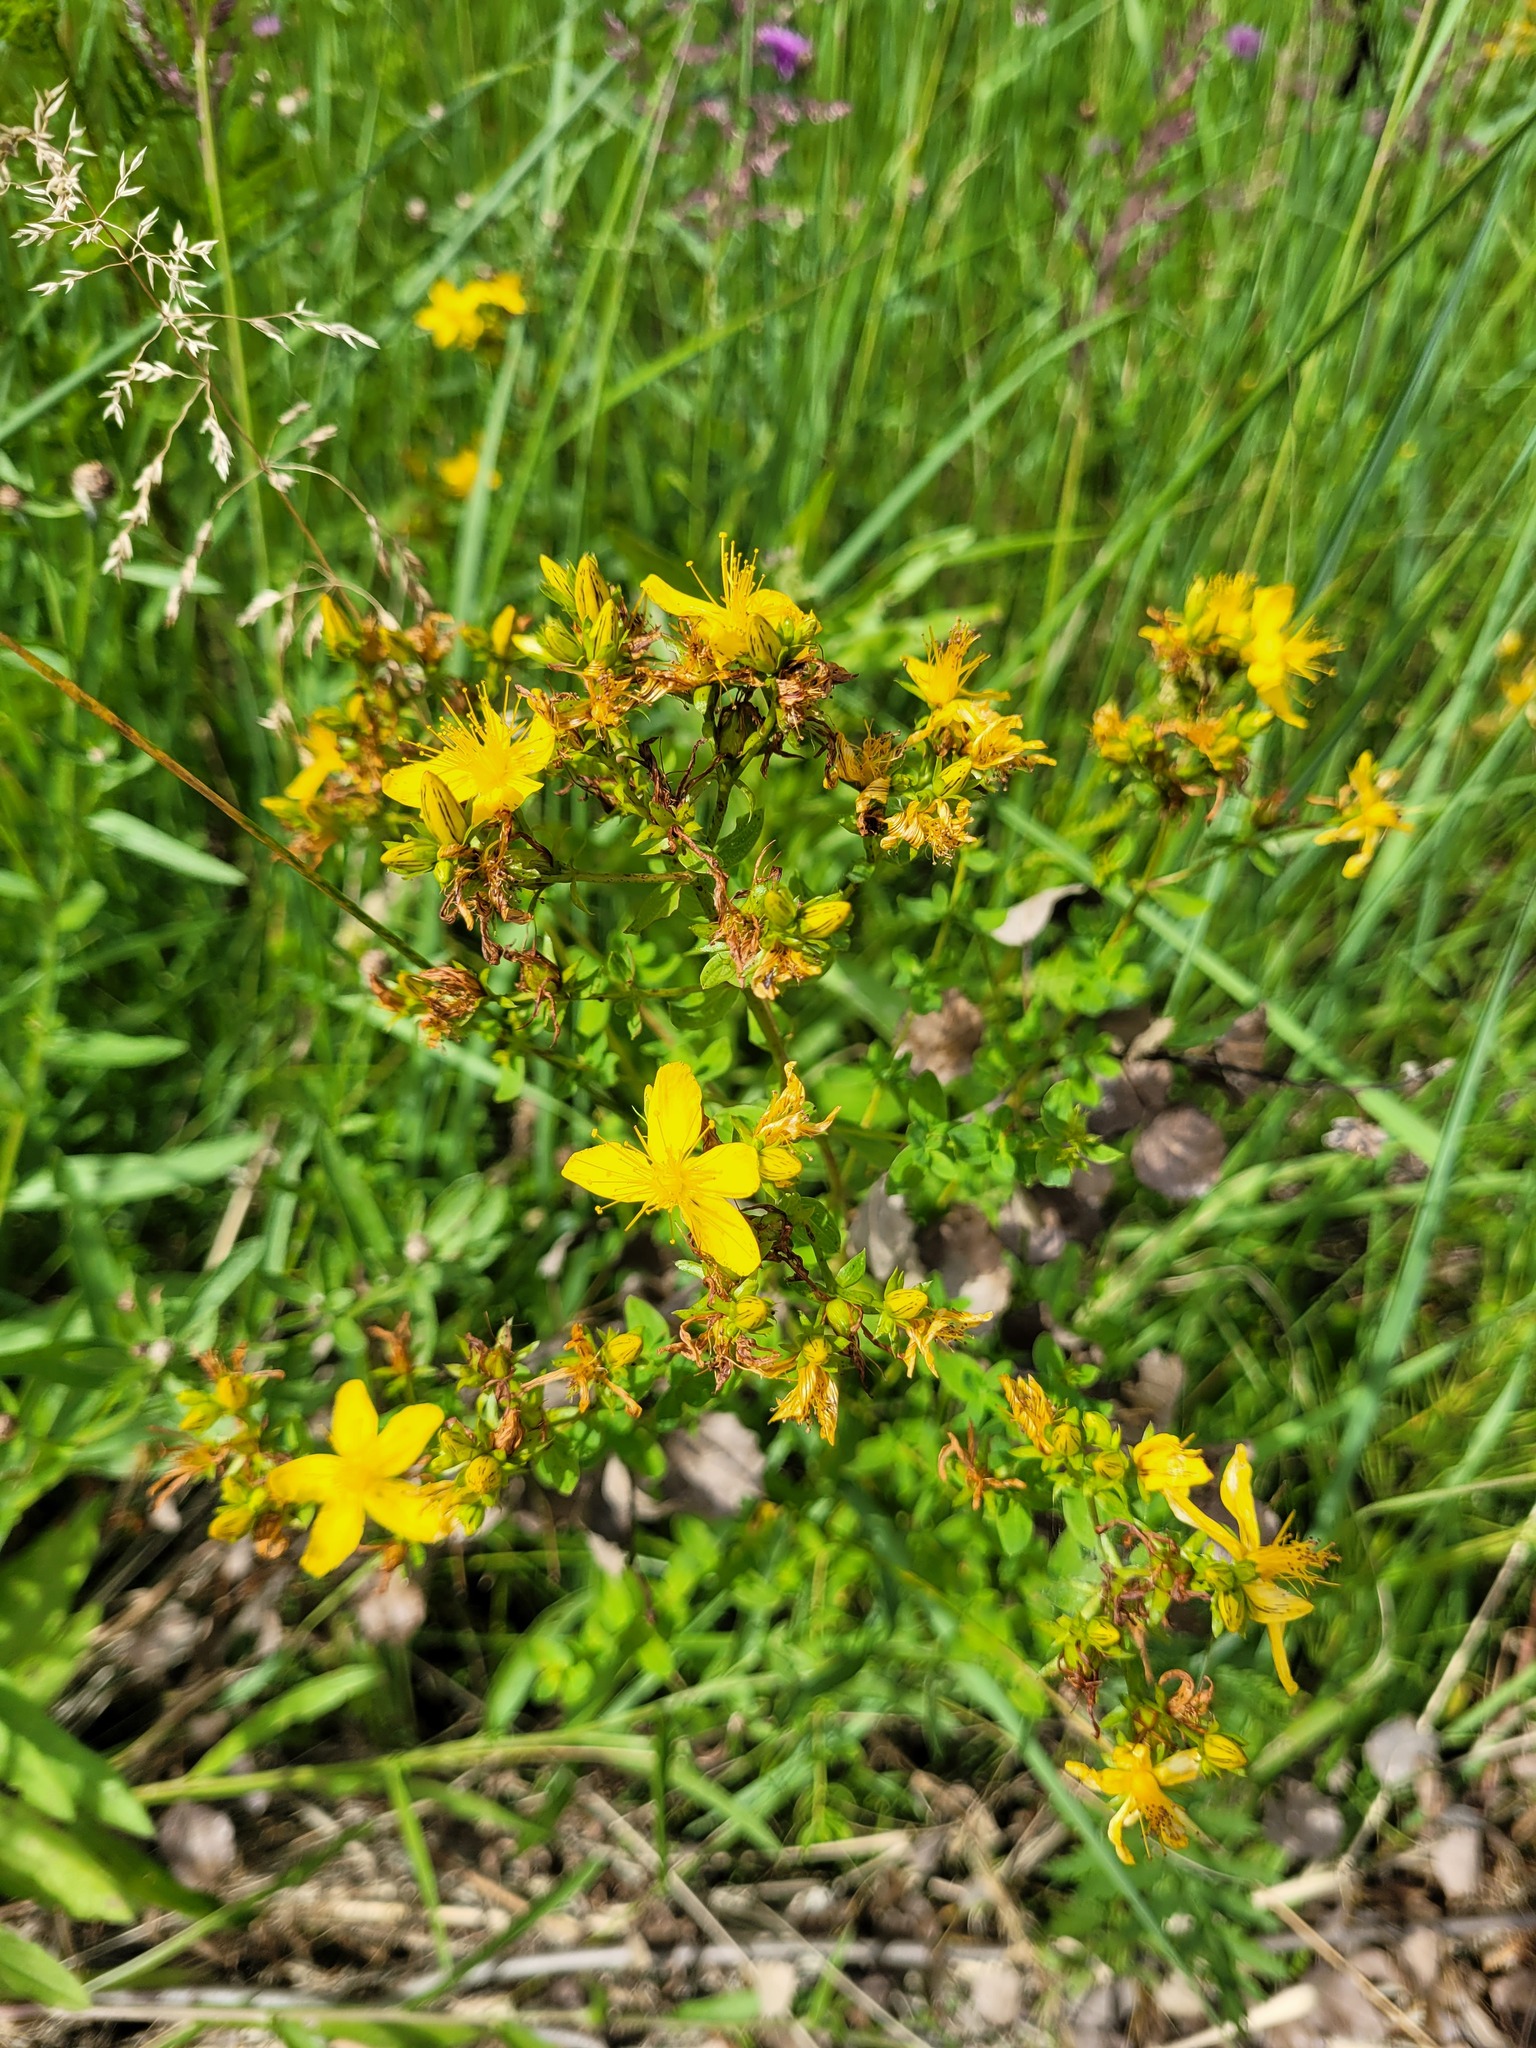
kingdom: Plantae
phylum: Tracheophyta
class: Magnoliopsida
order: Malpighiales
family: Hypericaceae
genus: Hypericum
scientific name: Hypericum perforatum
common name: Common st. johnswort
